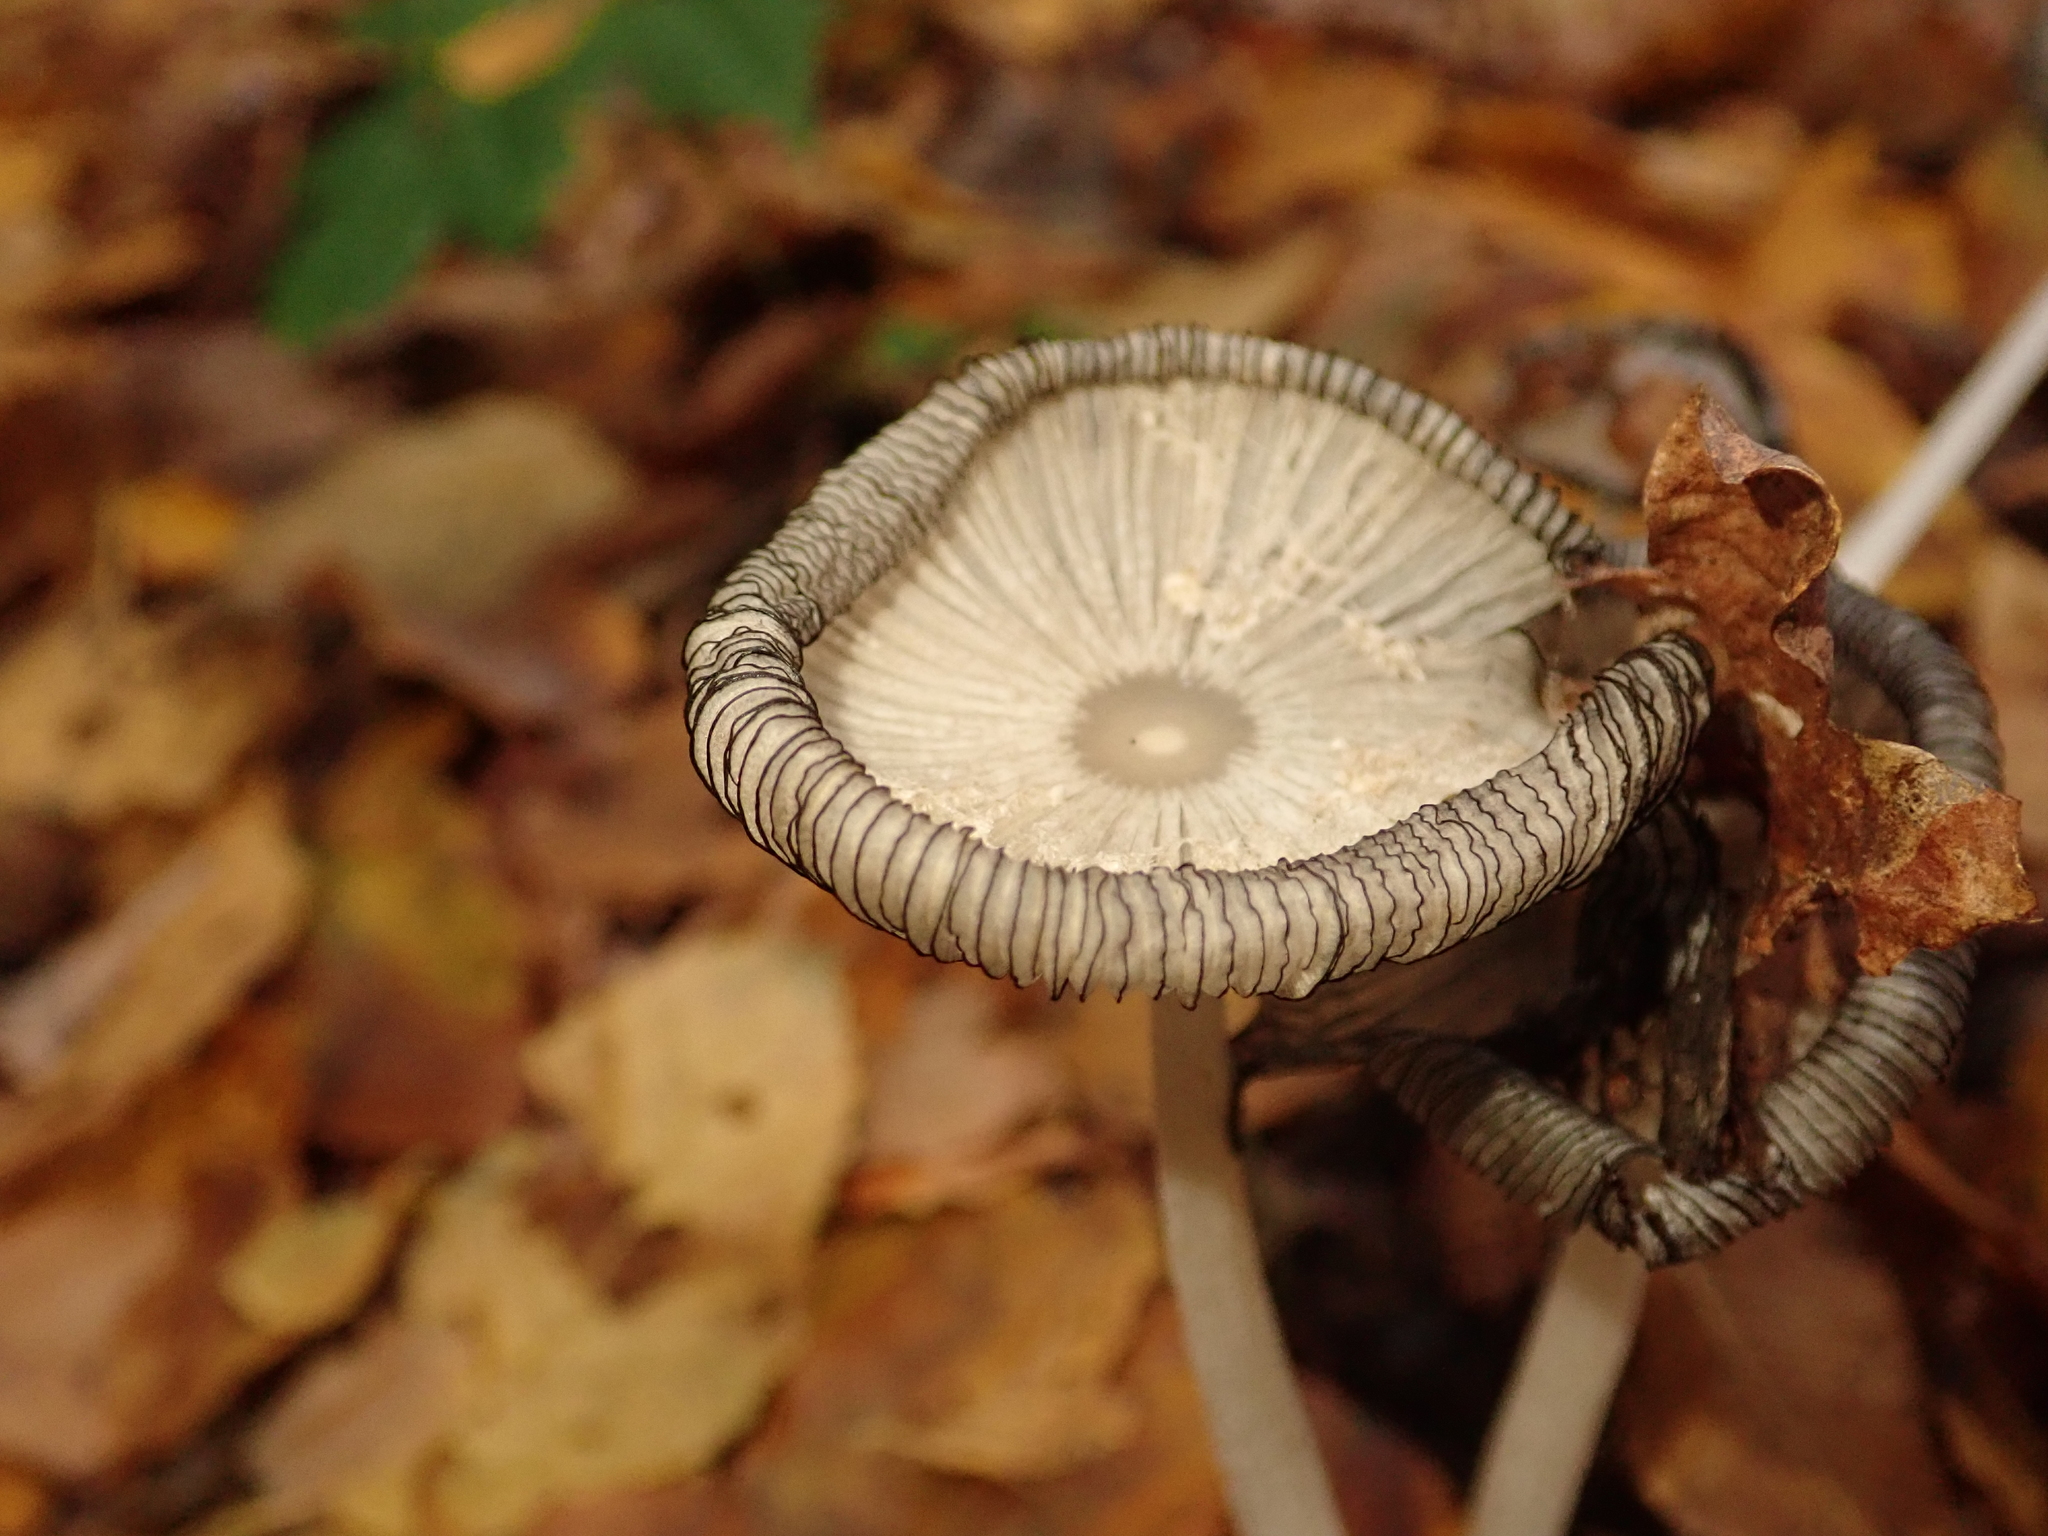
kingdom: Fungi
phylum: Basidiomycota
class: Agaricomycetes
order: Agaricales
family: Psathyrellaceae
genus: Coprinopsis
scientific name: Coprinopsis lagopus
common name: Hare'sfoot inkcap
